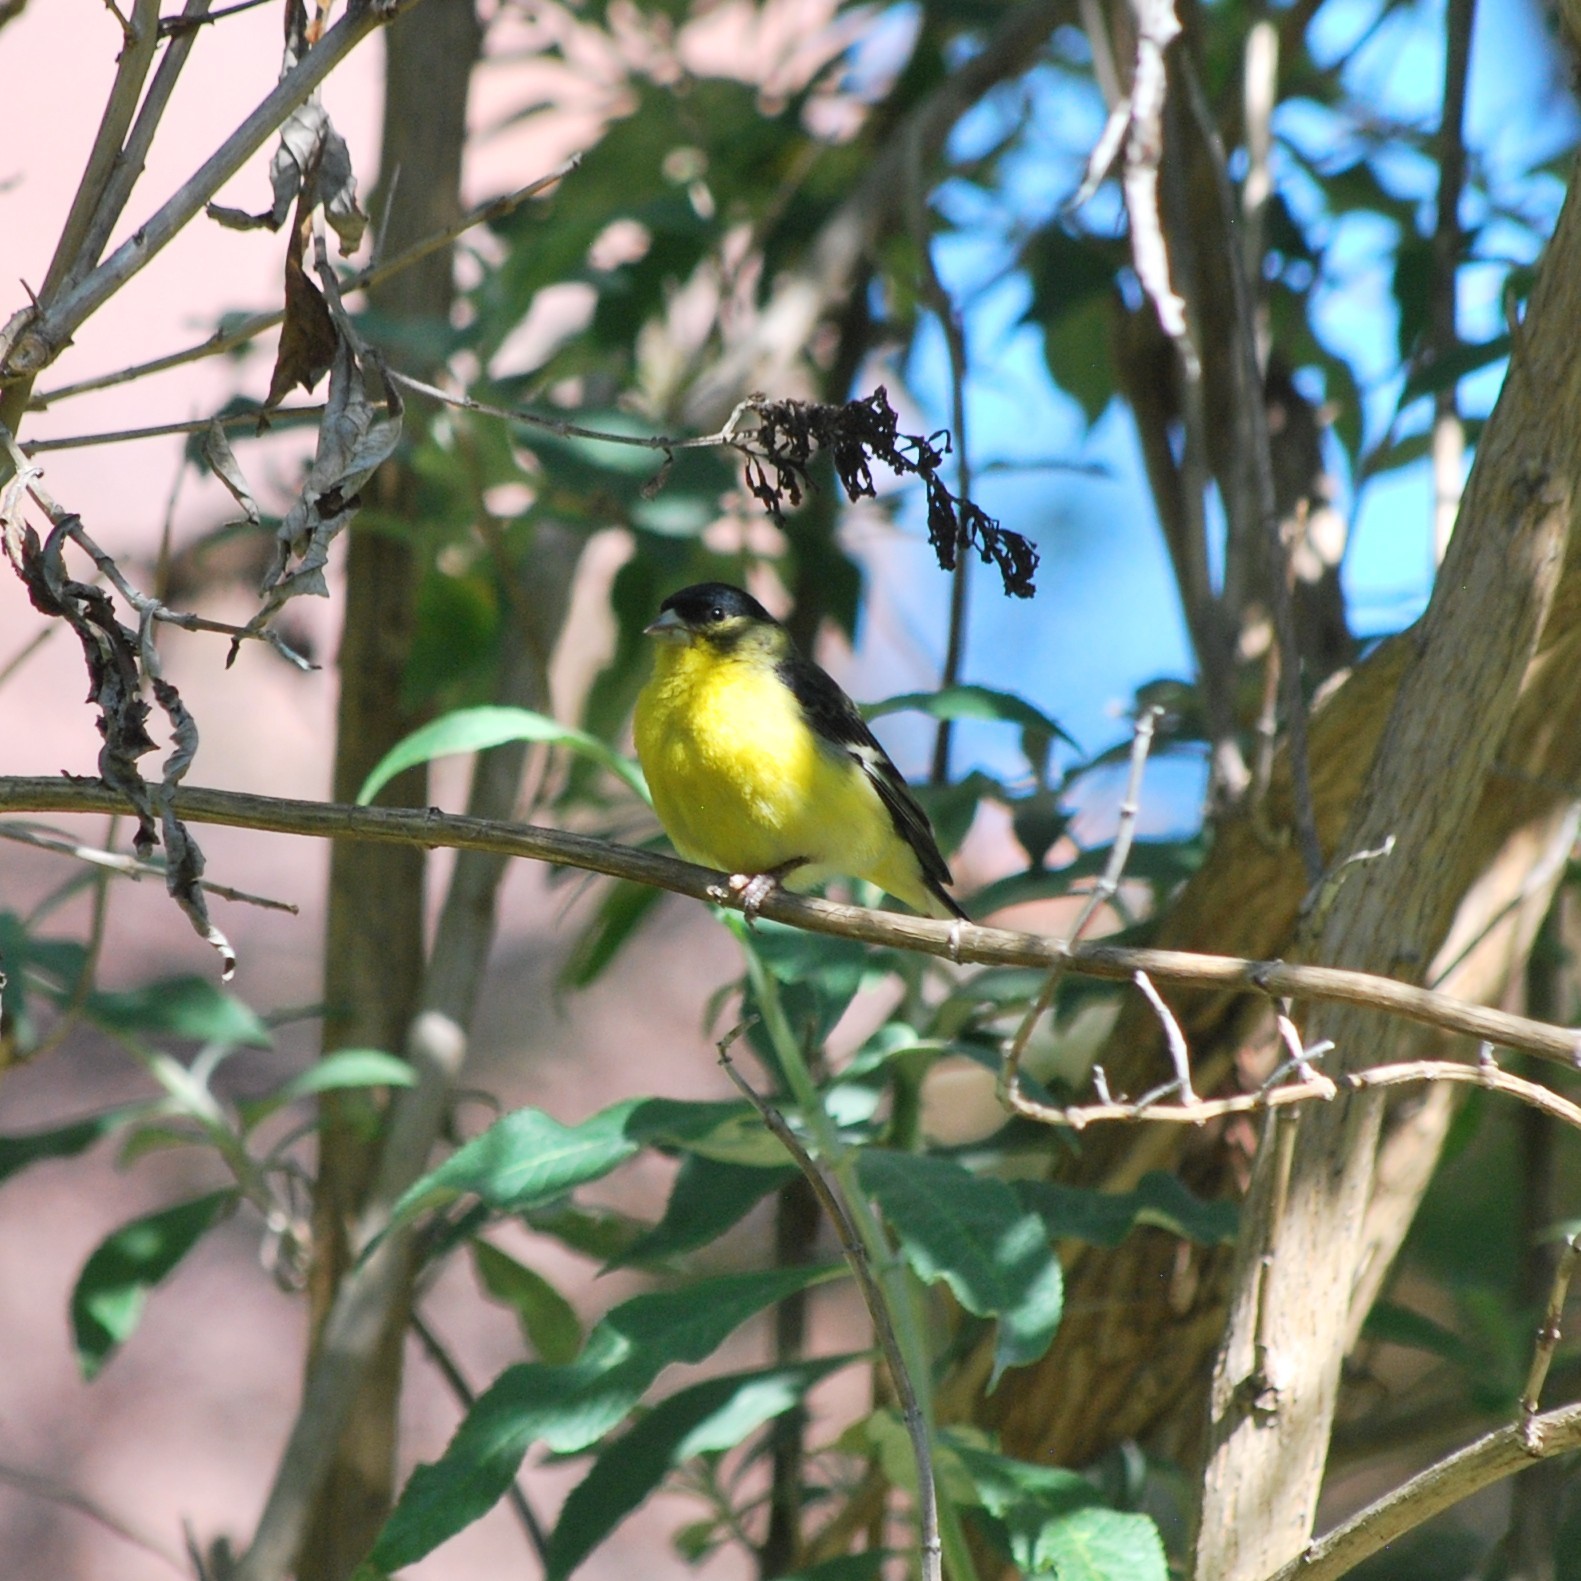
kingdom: Animalia
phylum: Chordata
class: Aves
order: Passeriformes
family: Fringillidae
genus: Spinus
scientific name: Spinus psaltria
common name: Lesser goldfinch
